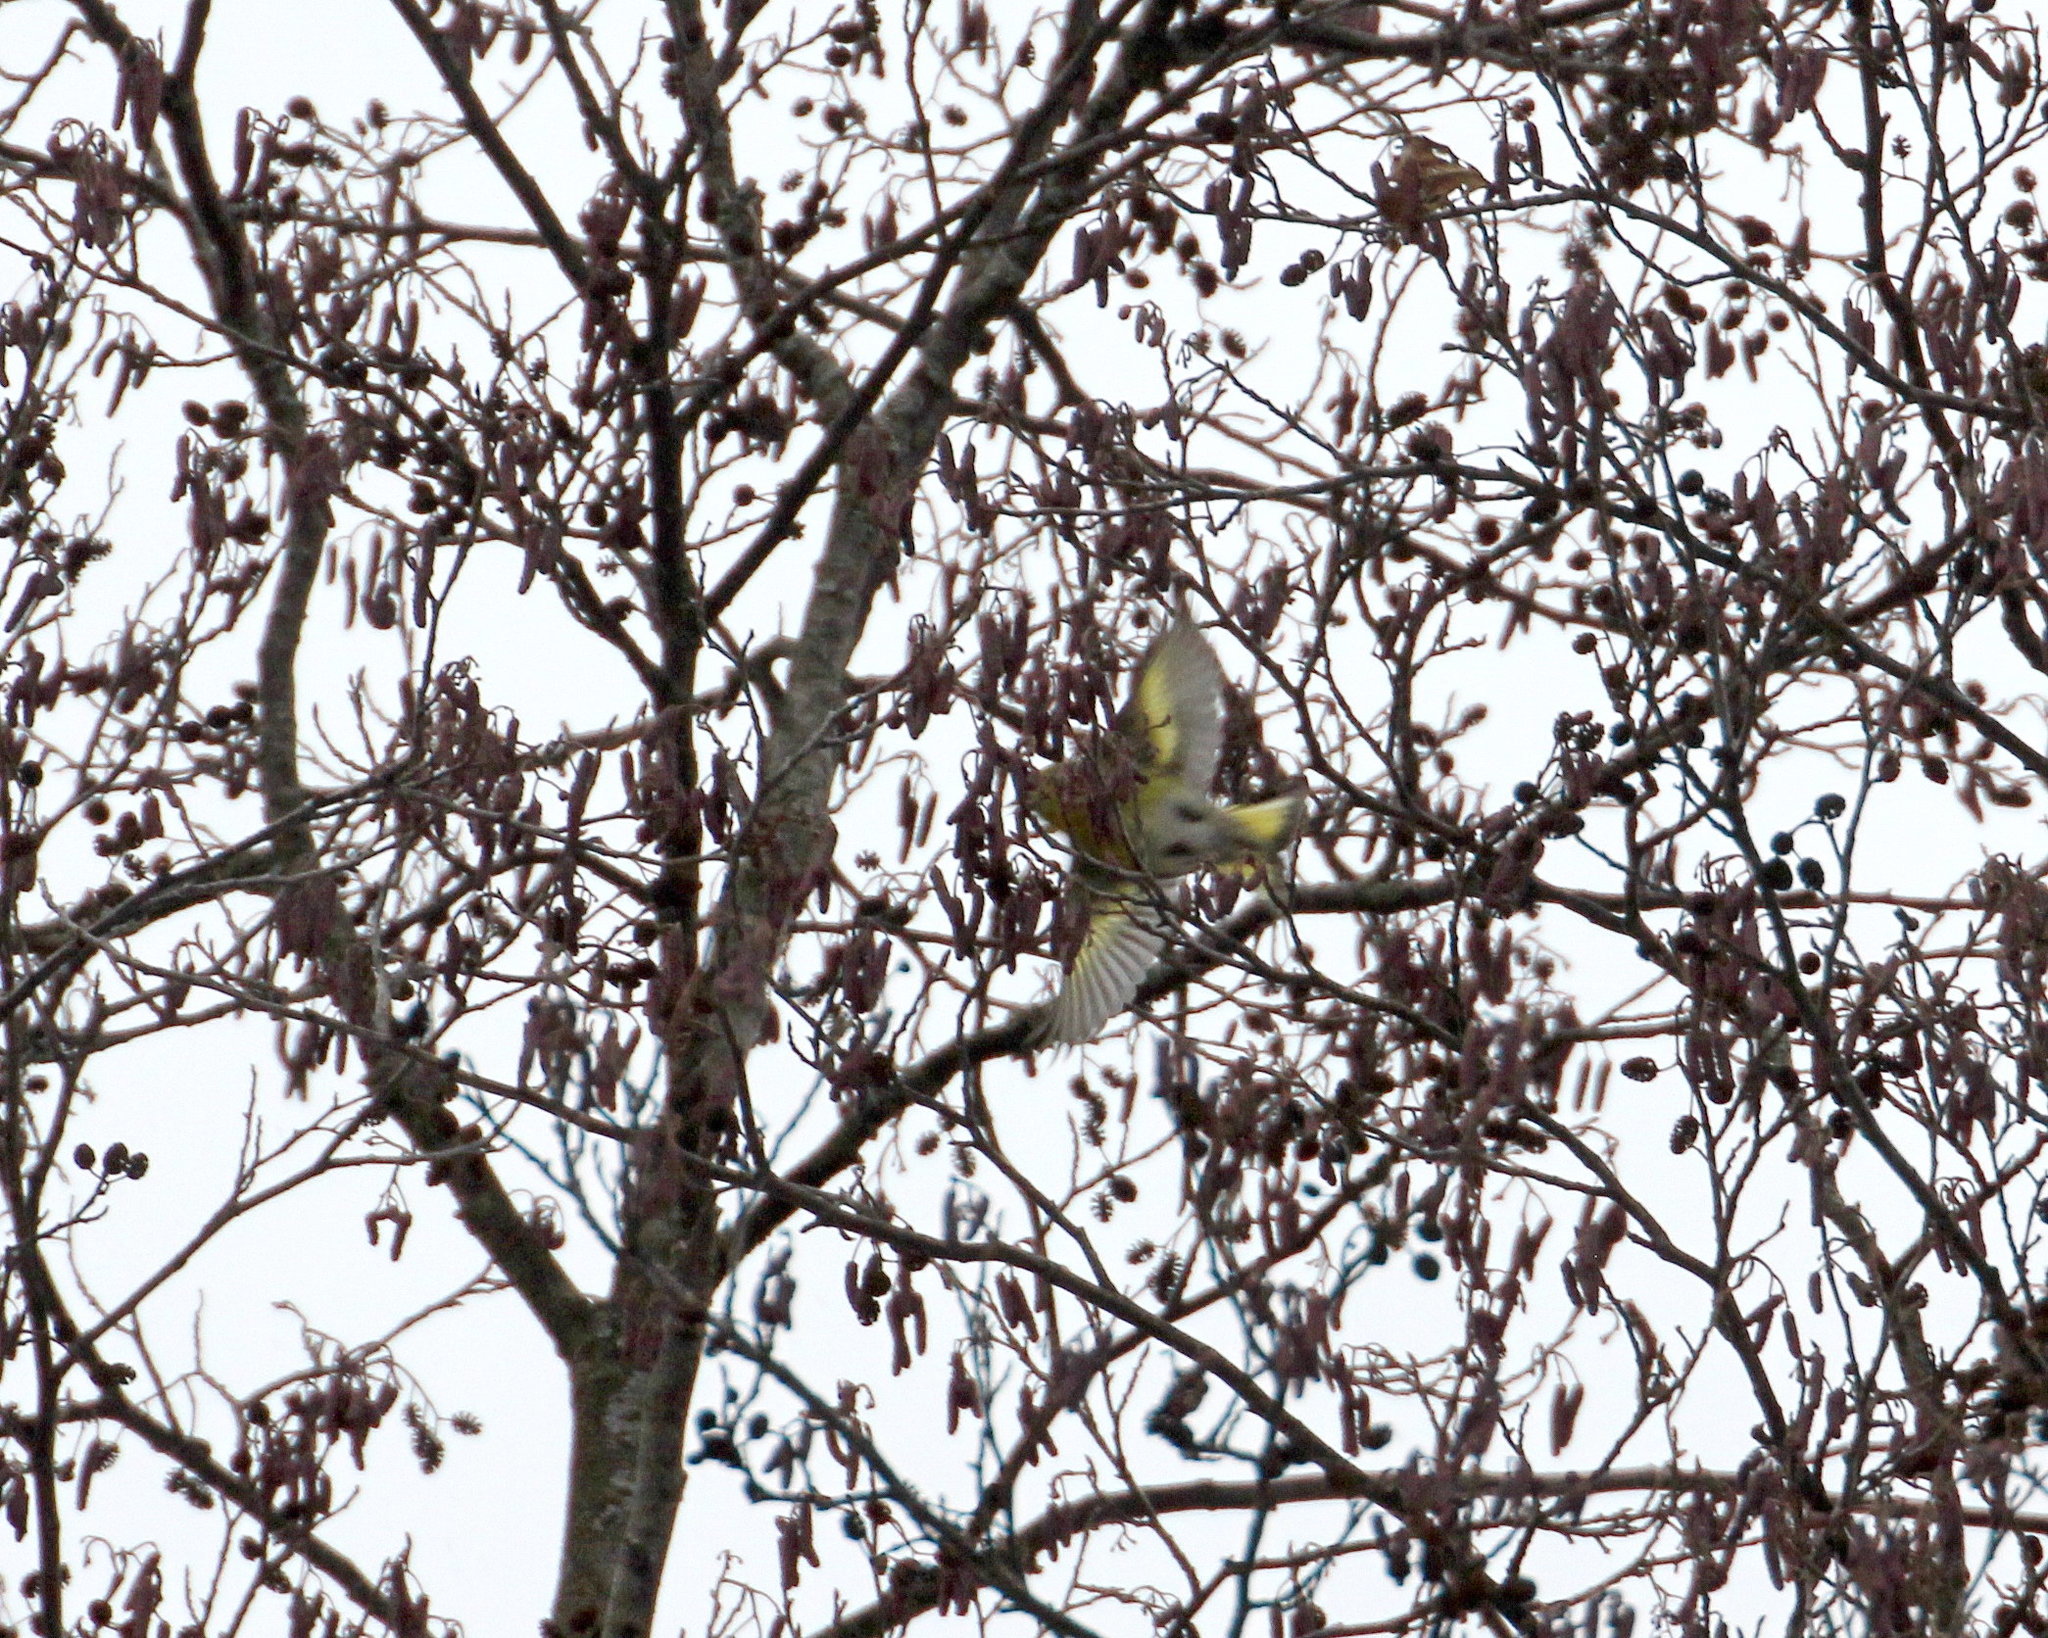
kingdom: Animalia
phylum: Chordata
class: Aves
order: Passeriformes
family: Fringillidae
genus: Spinus
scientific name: Spinus spinus
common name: Eurasian siskin
